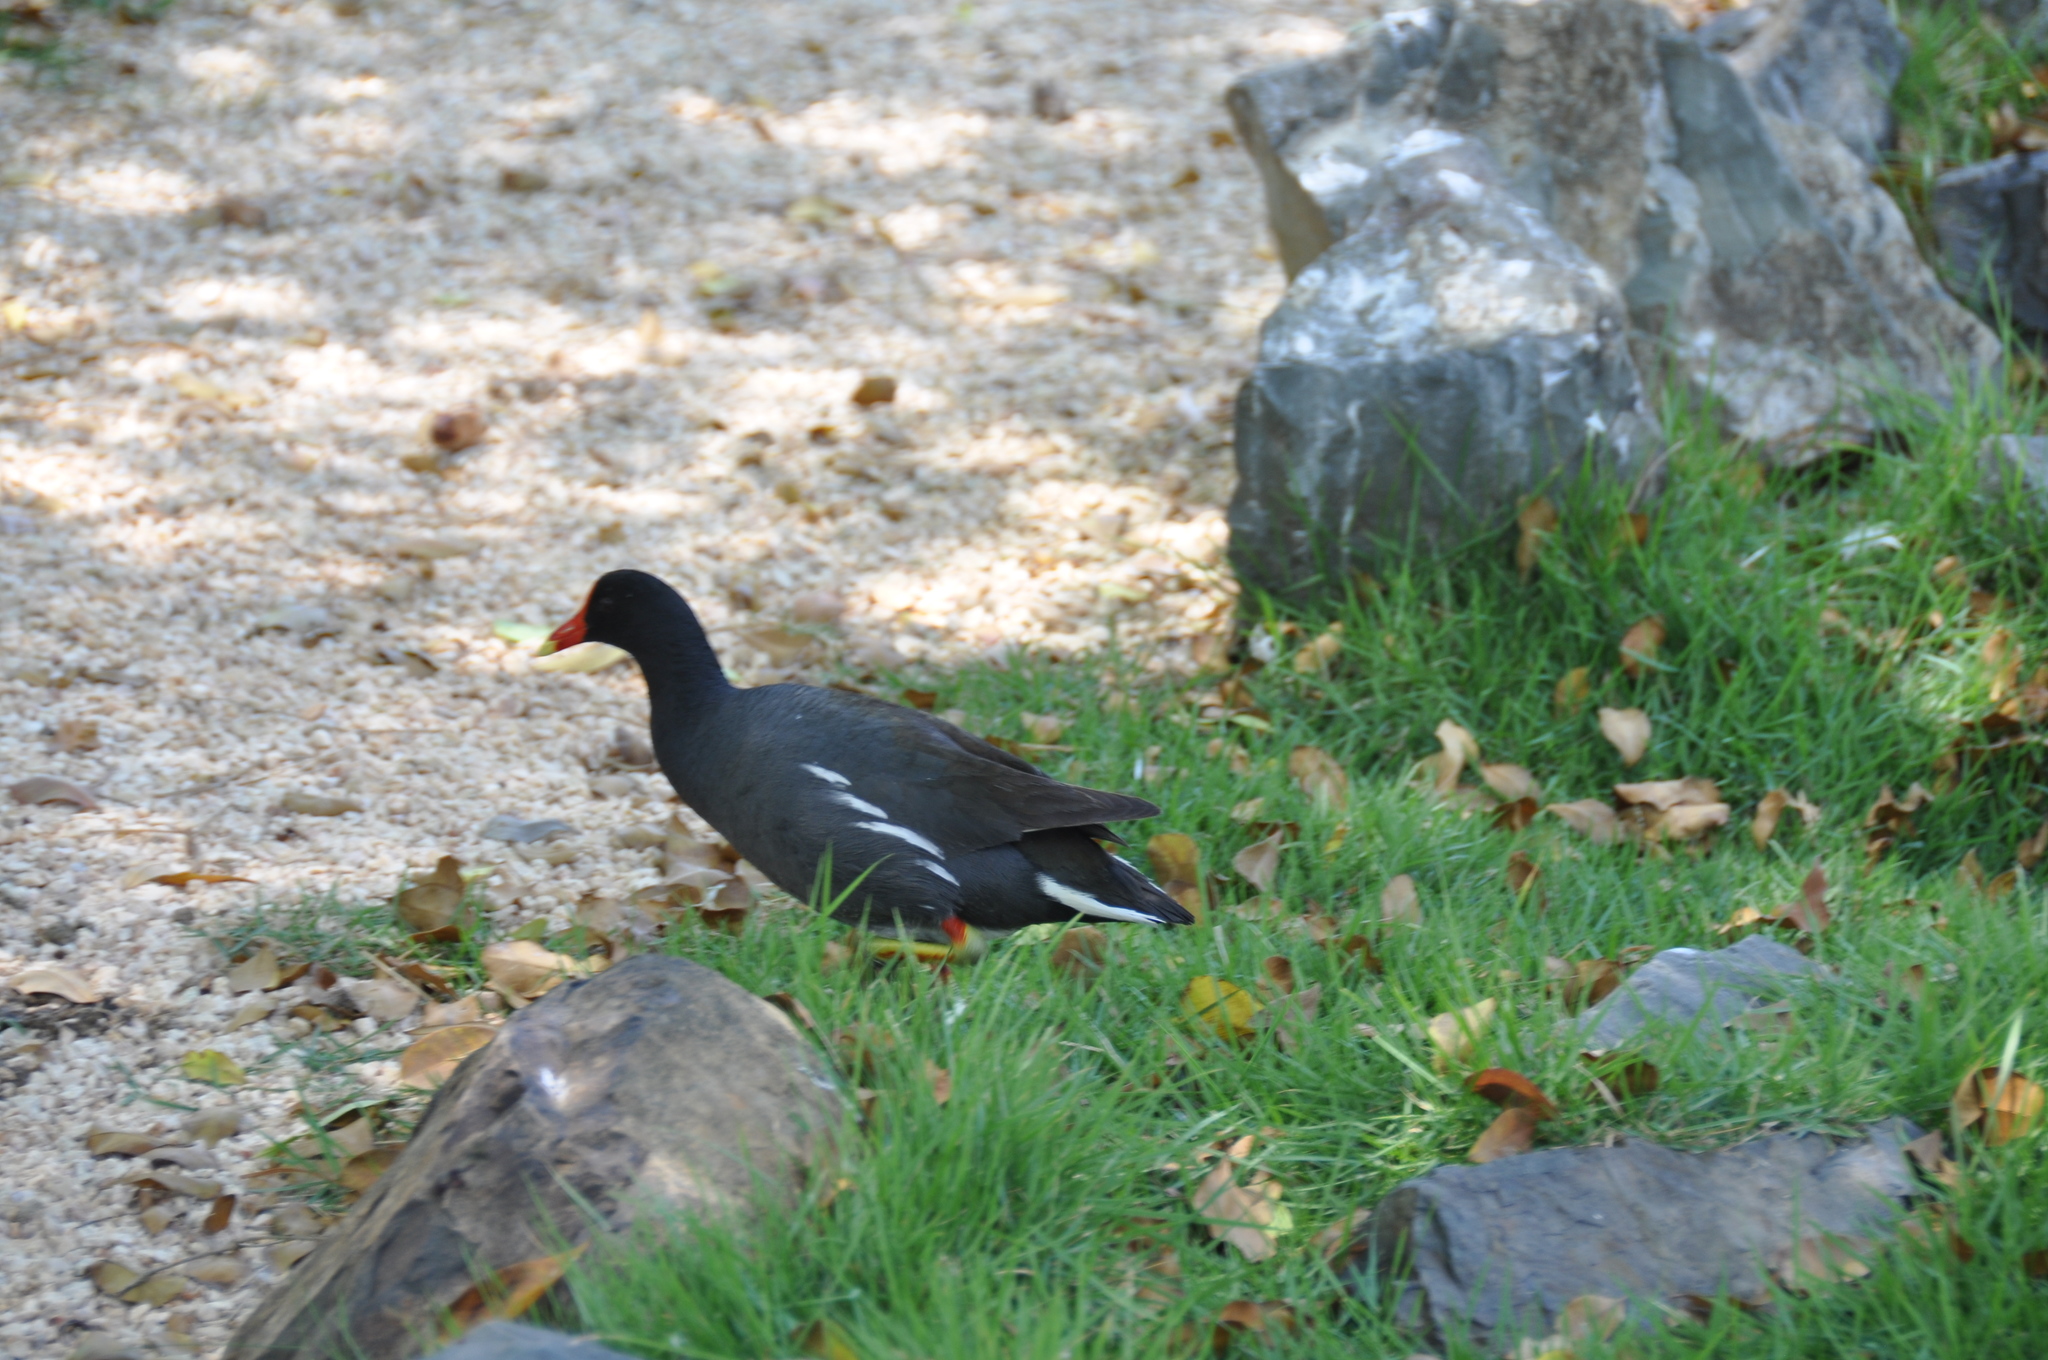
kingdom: Animalia
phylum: Chordata
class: Aves
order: Gruiformes
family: Rallidae
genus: Gallinula
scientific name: Gallinula chloropus
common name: Common moorhen
